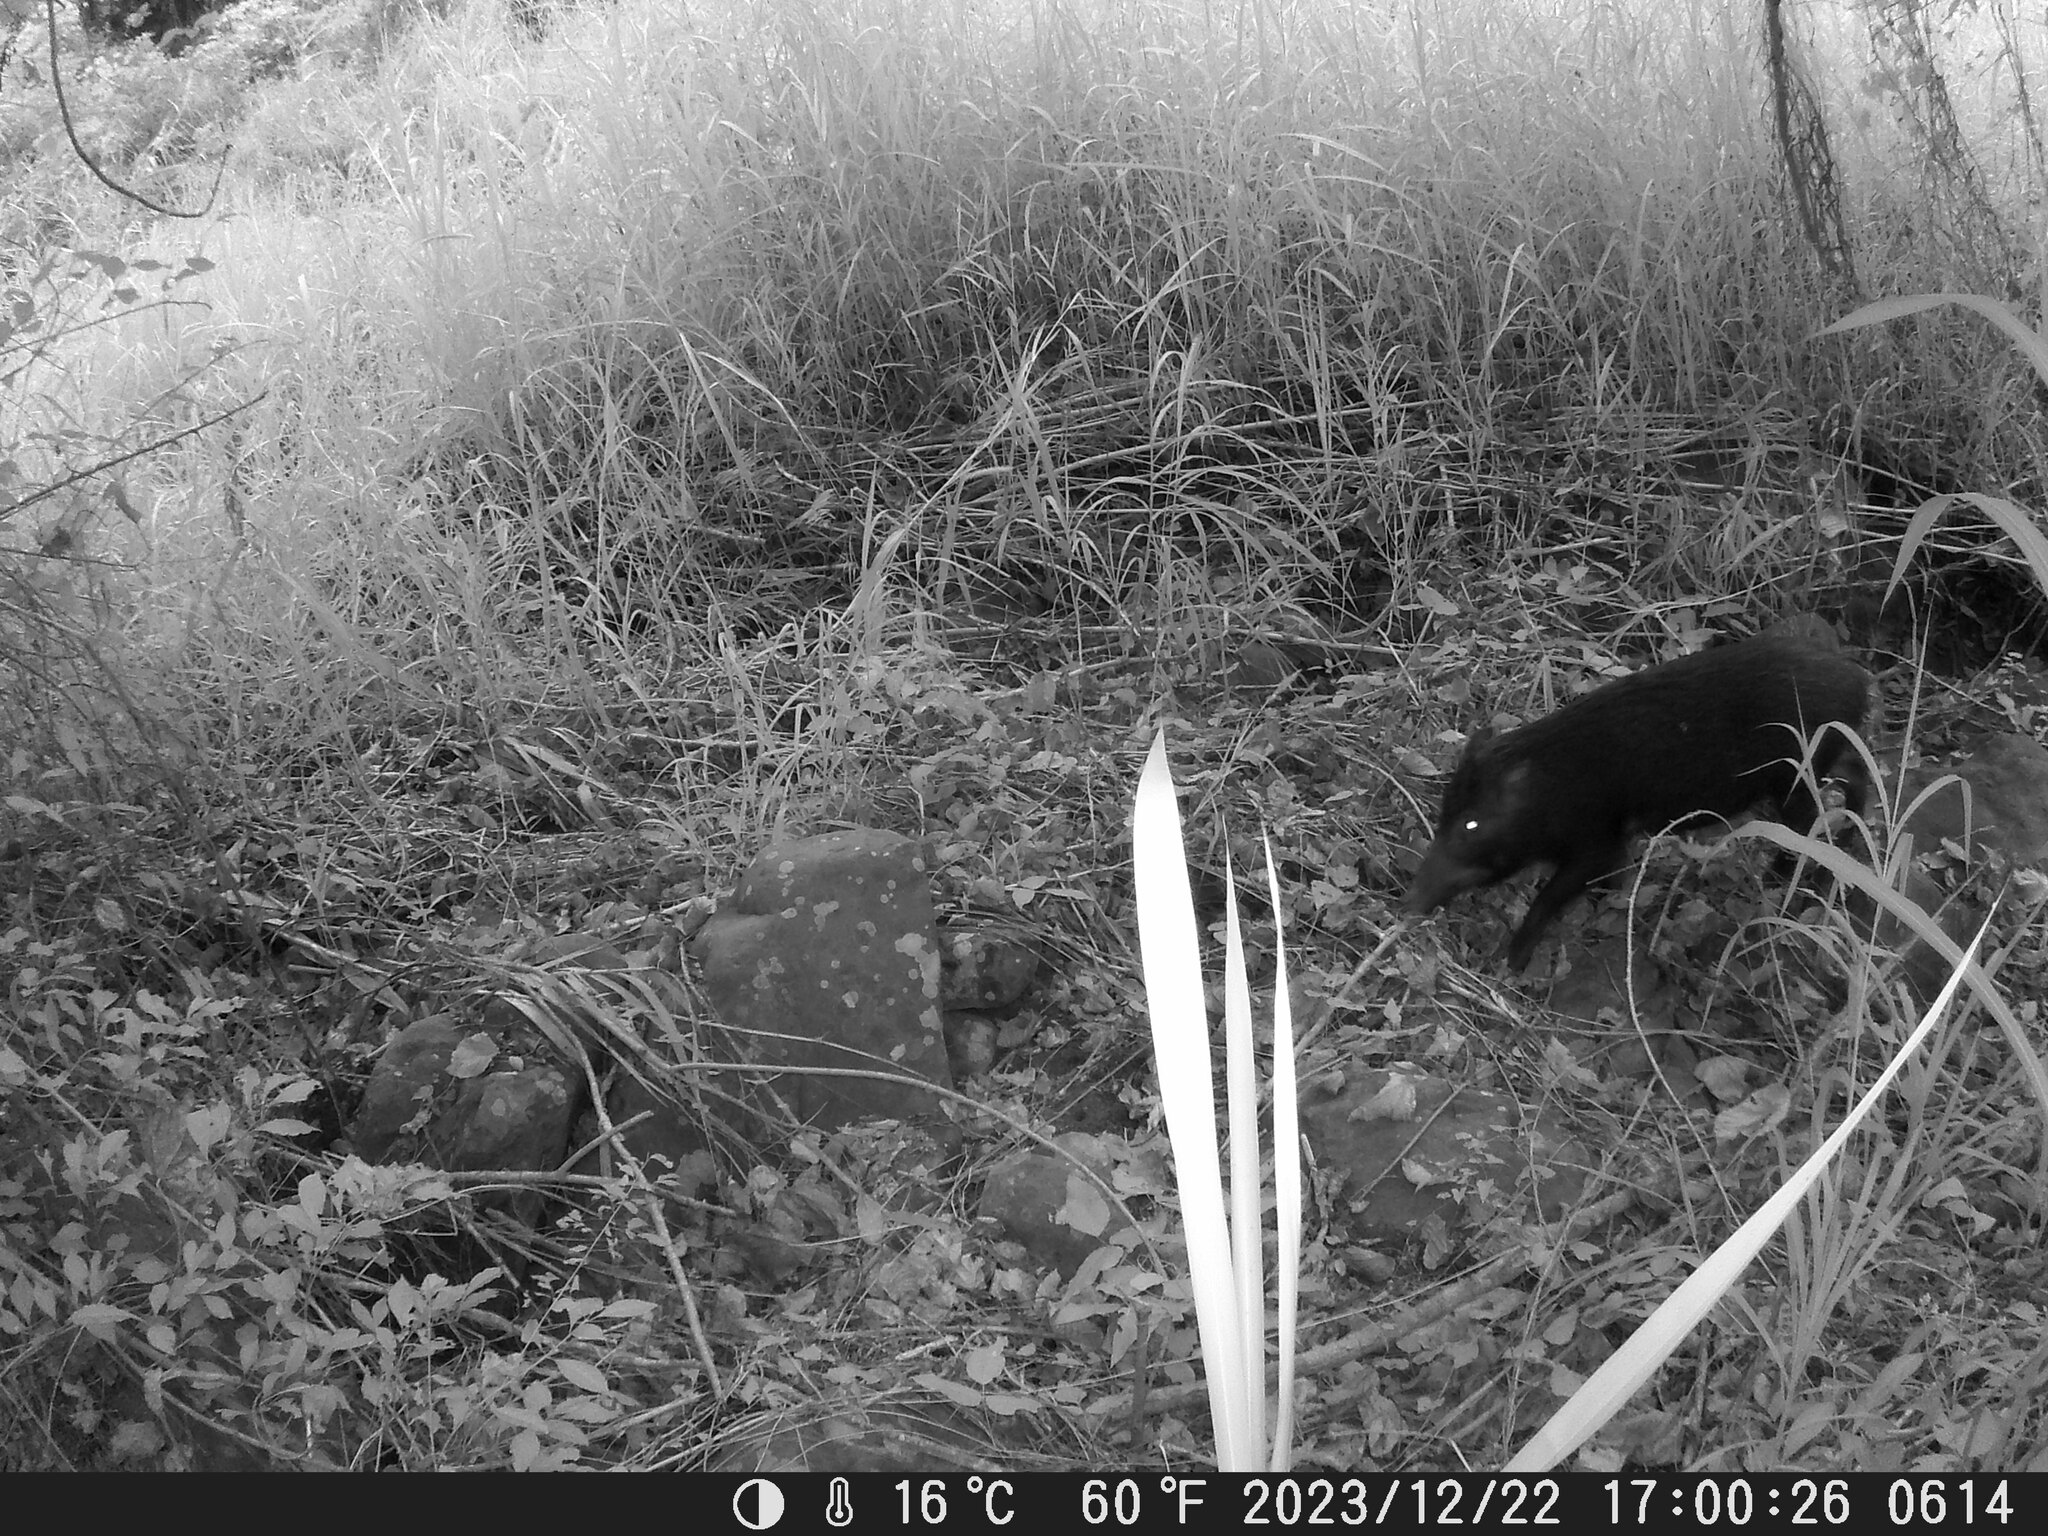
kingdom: Animalia
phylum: Chordata
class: Mammalia
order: Artiodactyla
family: Suidae
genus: Sus
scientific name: Sus scrofa
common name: Wild boar
